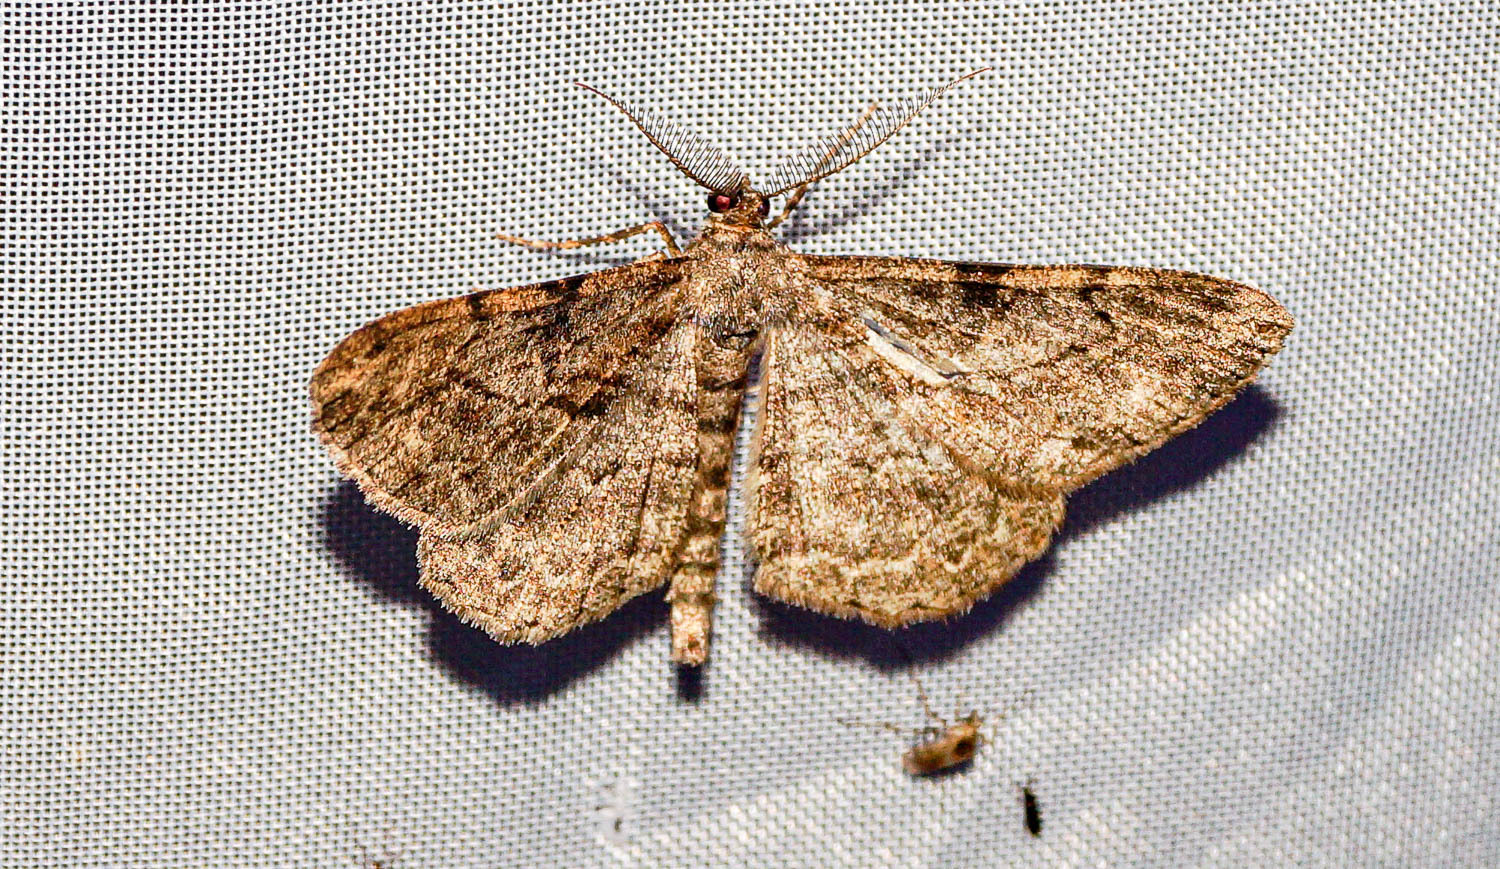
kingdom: Animalia
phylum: Arthropoda
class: Insecta
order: Lepidoptera
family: Geometridae
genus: Peribatodes
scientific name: Peribatodes rhomboidaria
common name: Willow beauty
